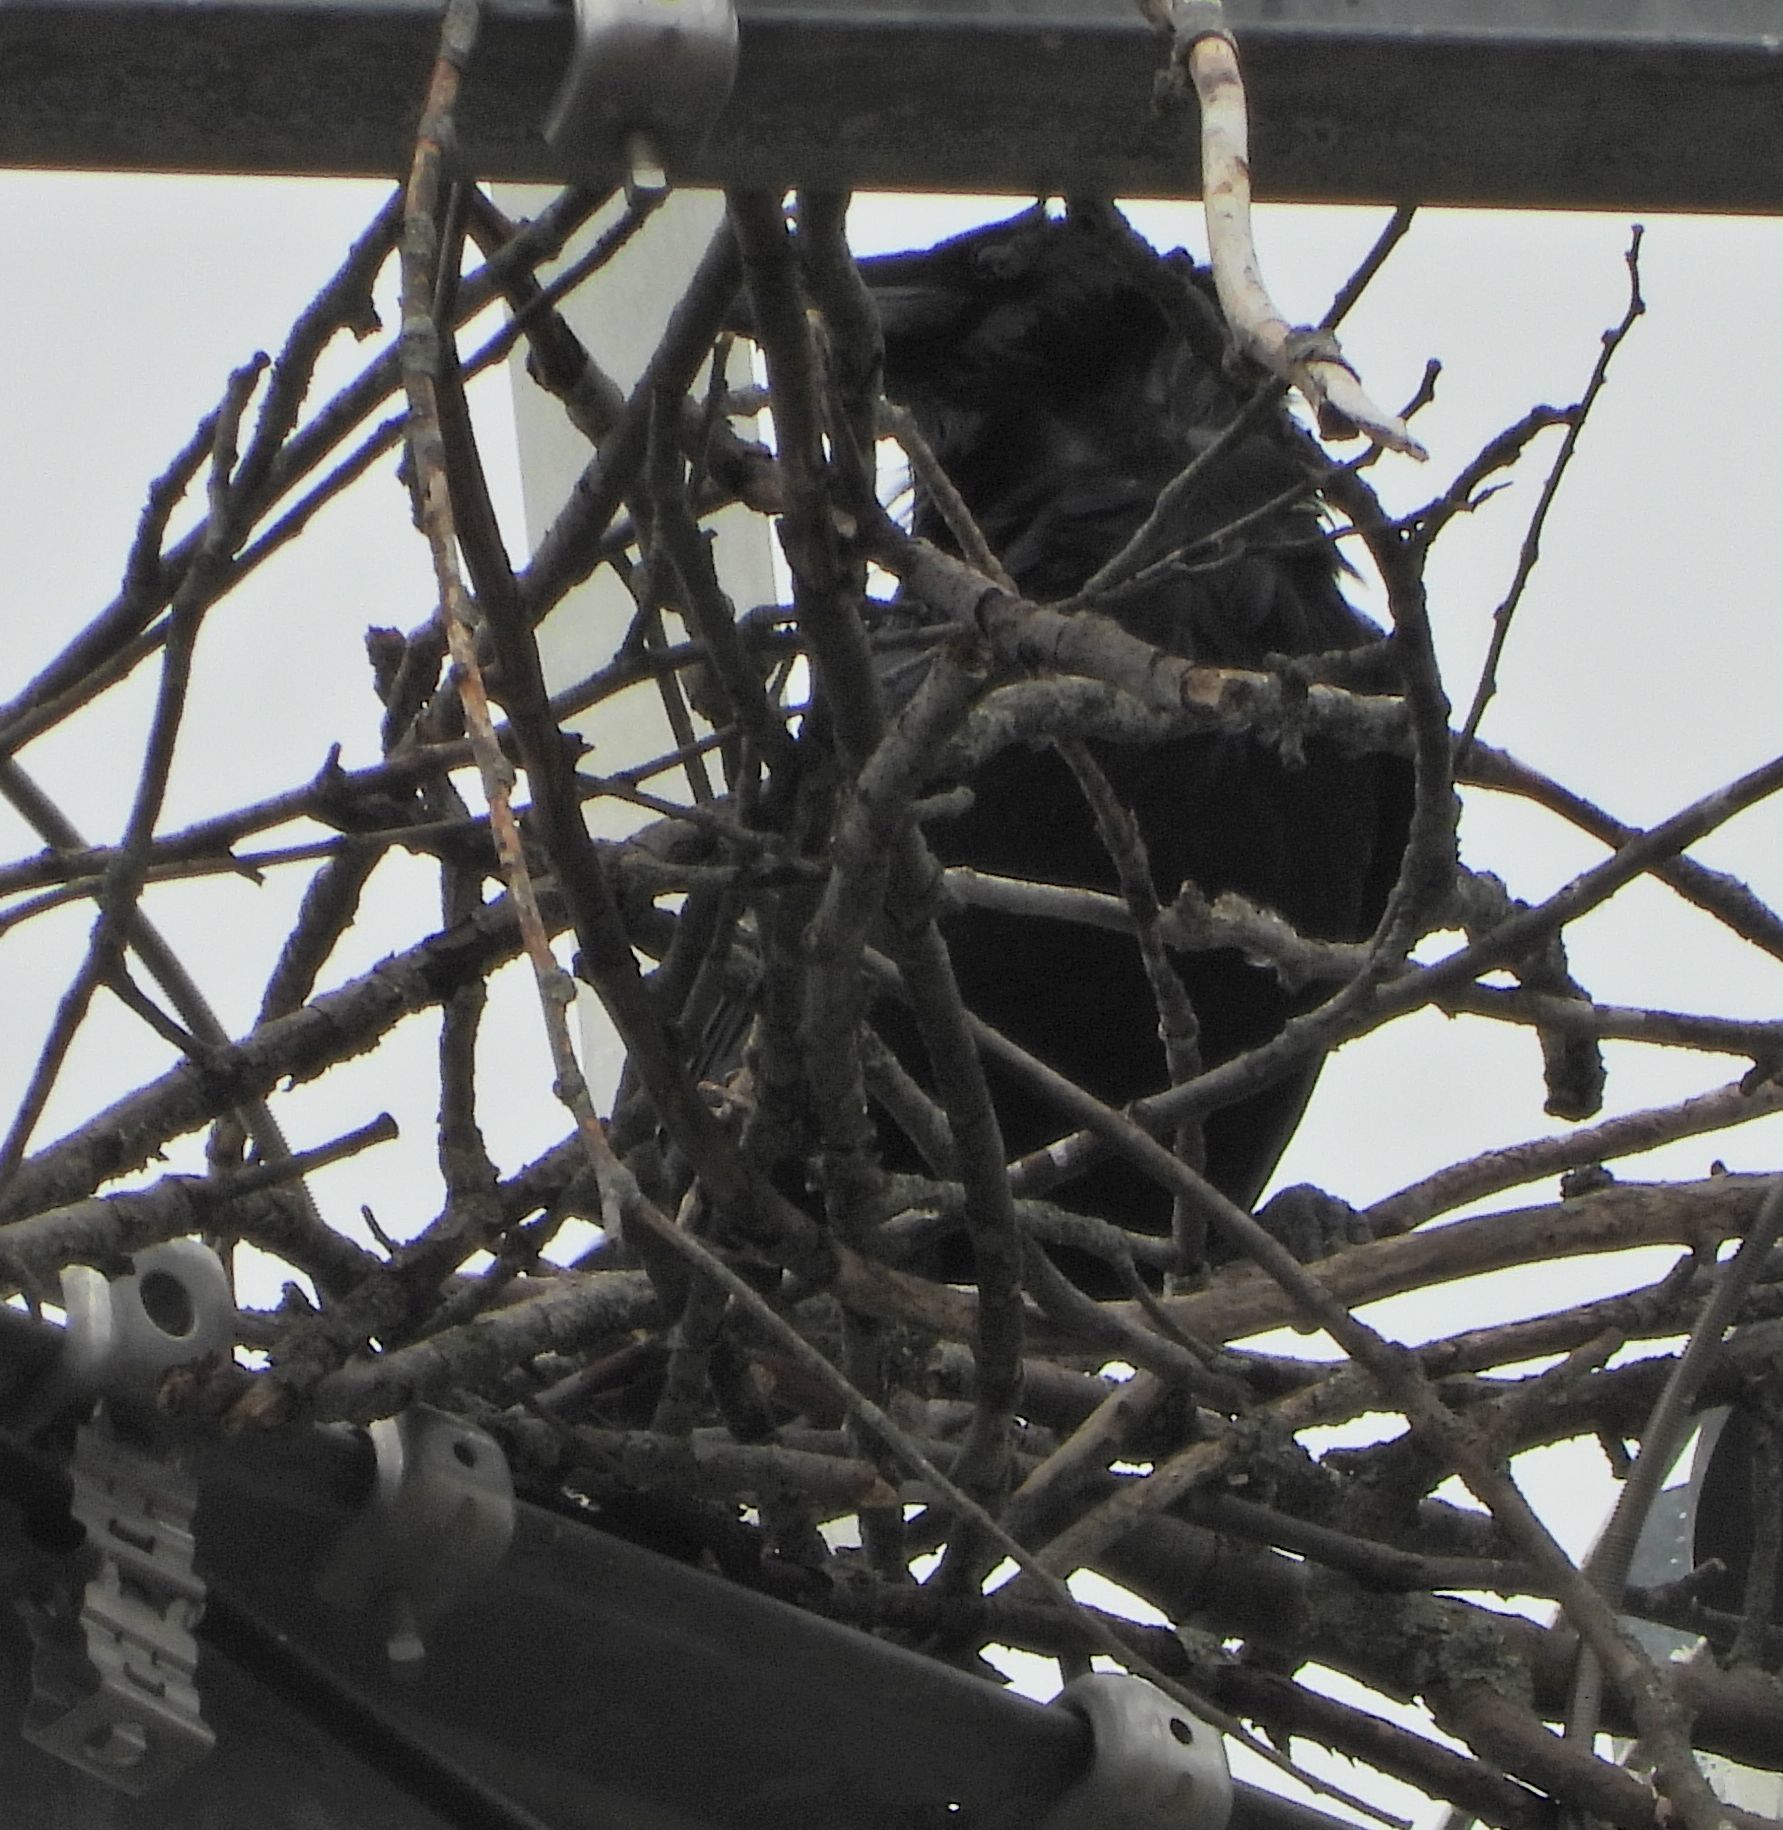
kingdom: Animalia
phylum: Chordata
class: Aves
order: Passeriformes
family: Corvidae
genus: Corvus
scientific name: Corvus corax
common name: Common raven
